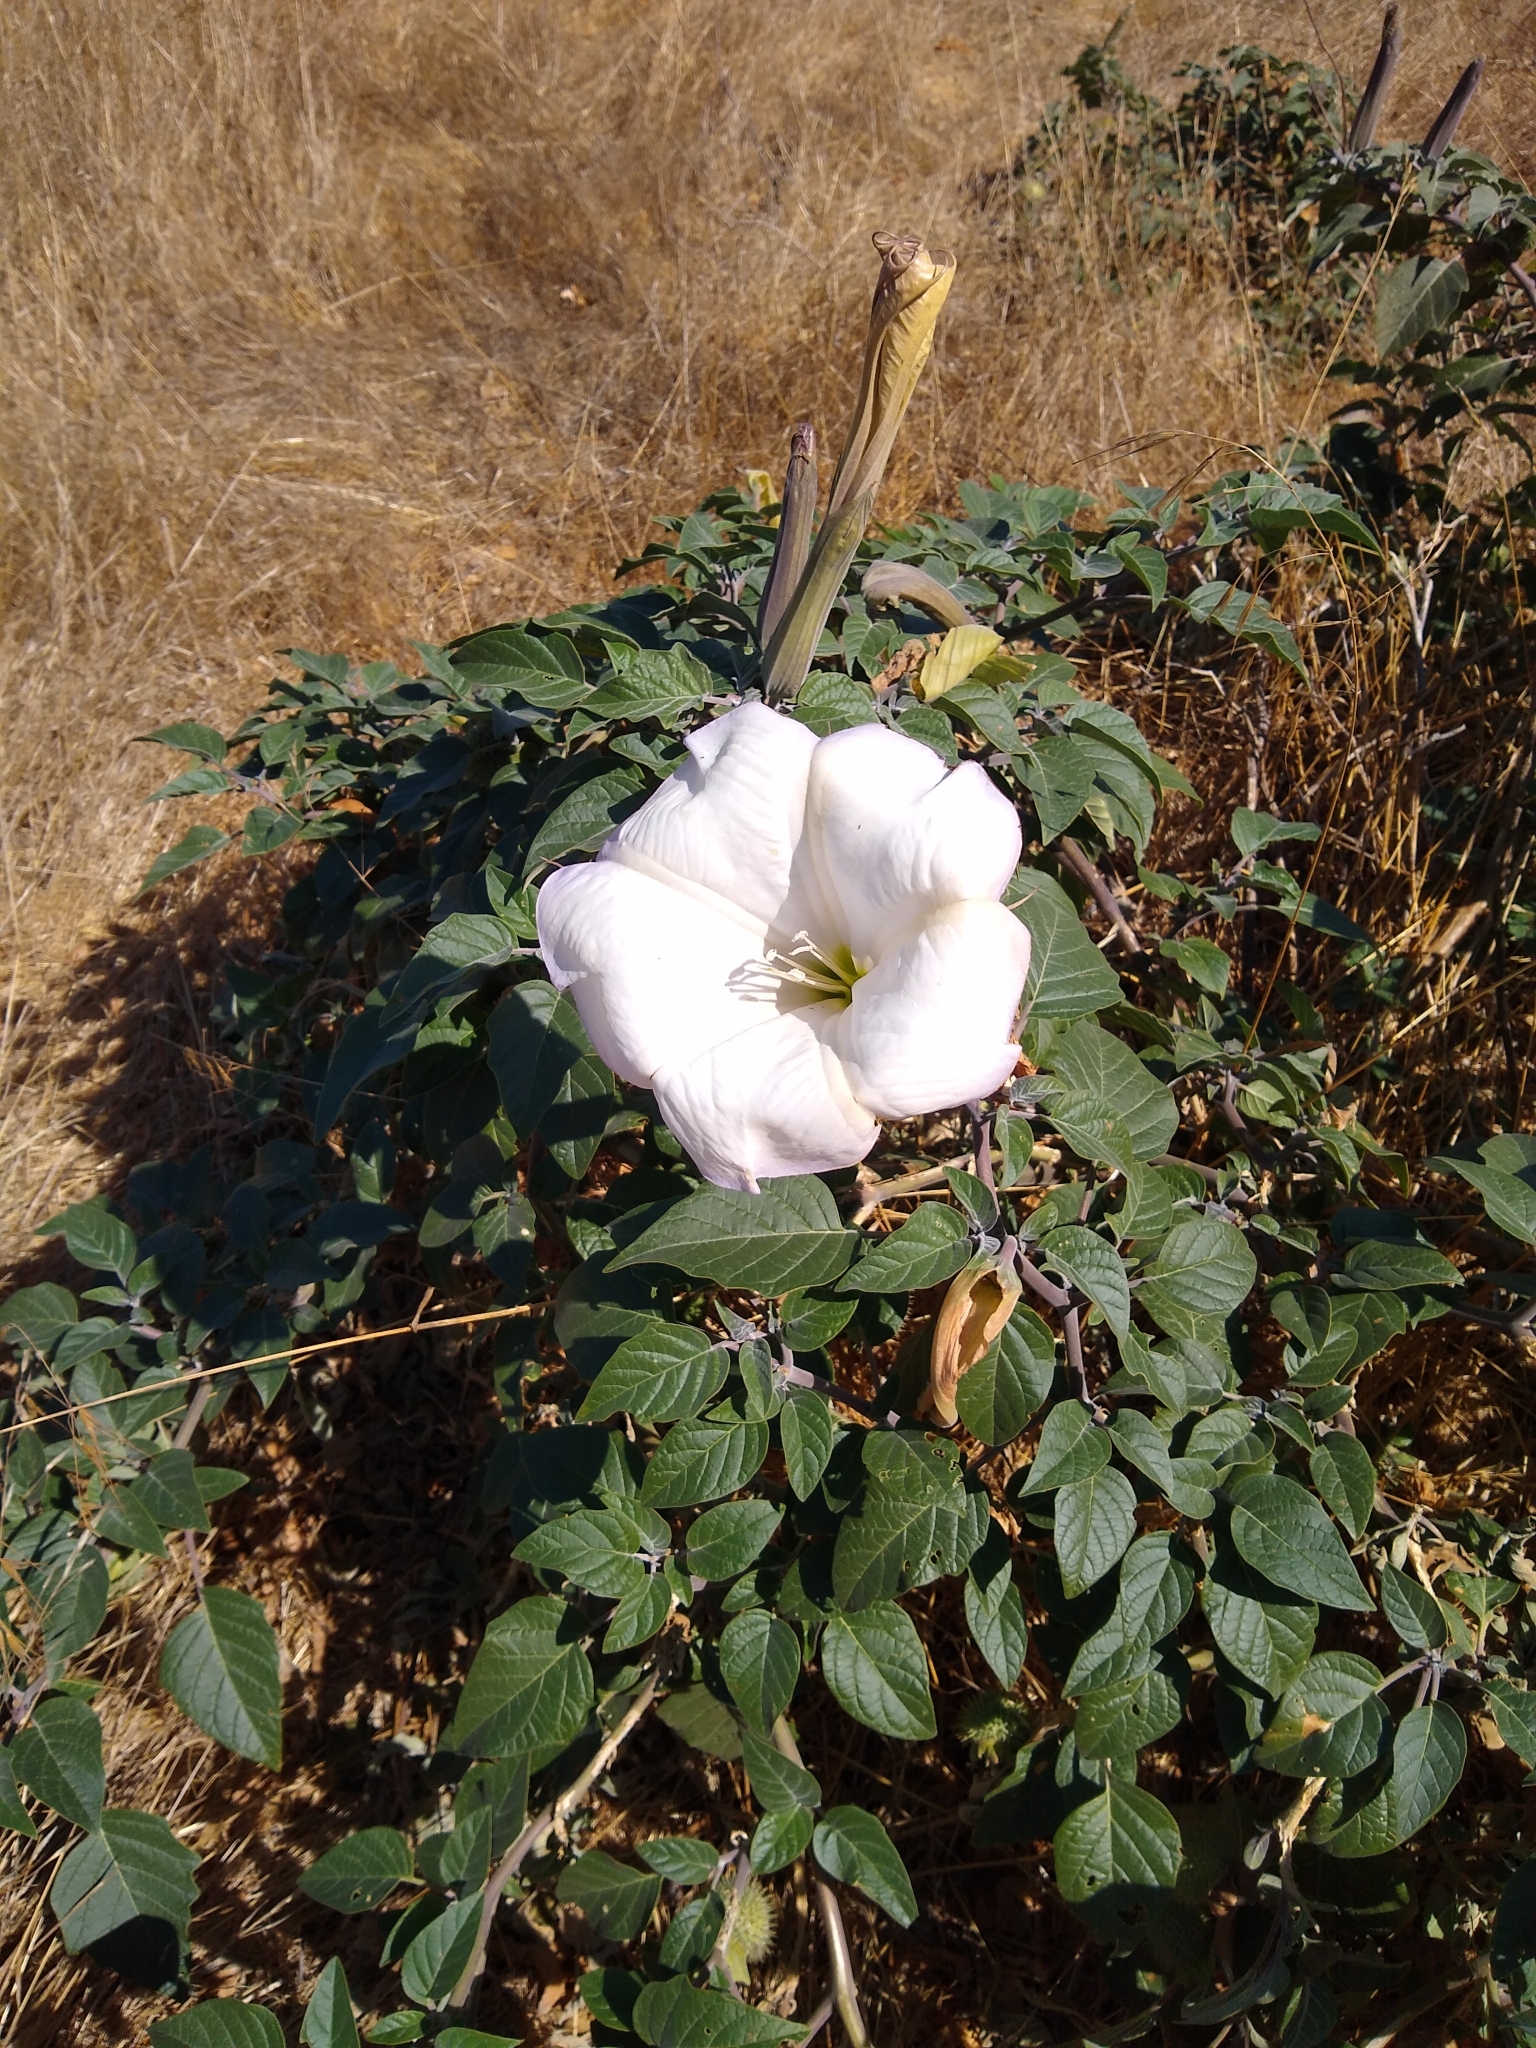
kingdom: Plantae
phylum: Tracheophyta
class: Magnoliopsida
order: Solanales
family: Solanaceae
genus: Datura
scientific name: Datura wrightii
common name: Sacred thorn-apple
